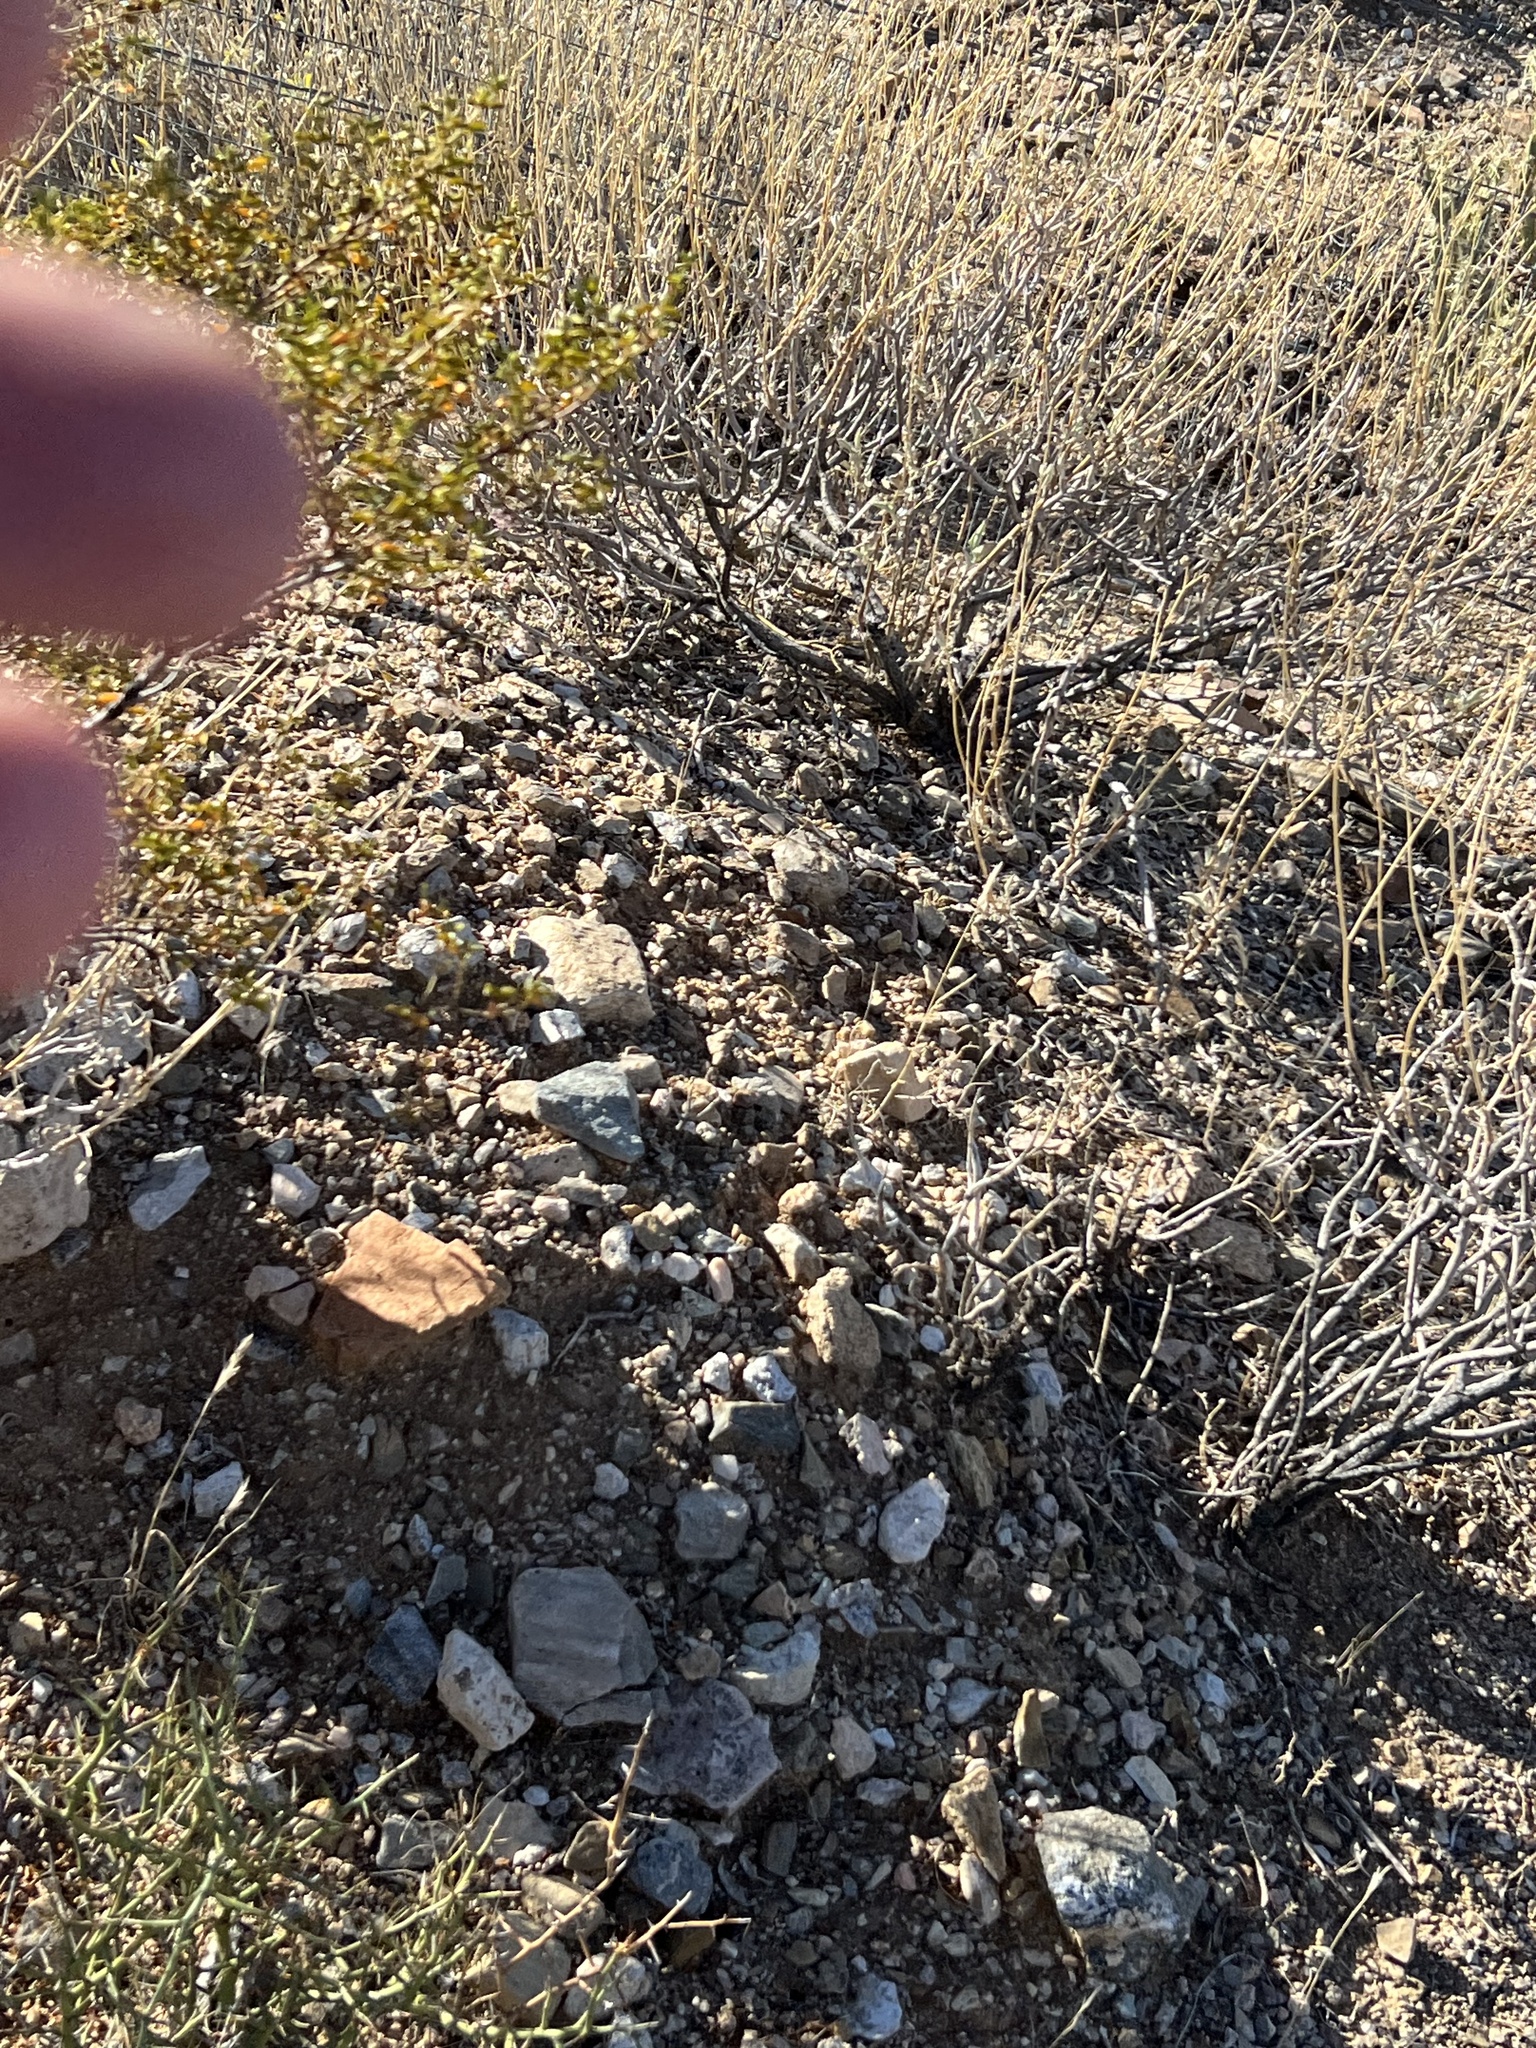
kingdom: Plantae
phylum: Tracheophyta
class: Magnoliopsida
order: Caryophyllales
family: Cactaceae
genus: Opuntia
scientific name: Opuntia basilaris
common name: Beavertail prickly-pear
